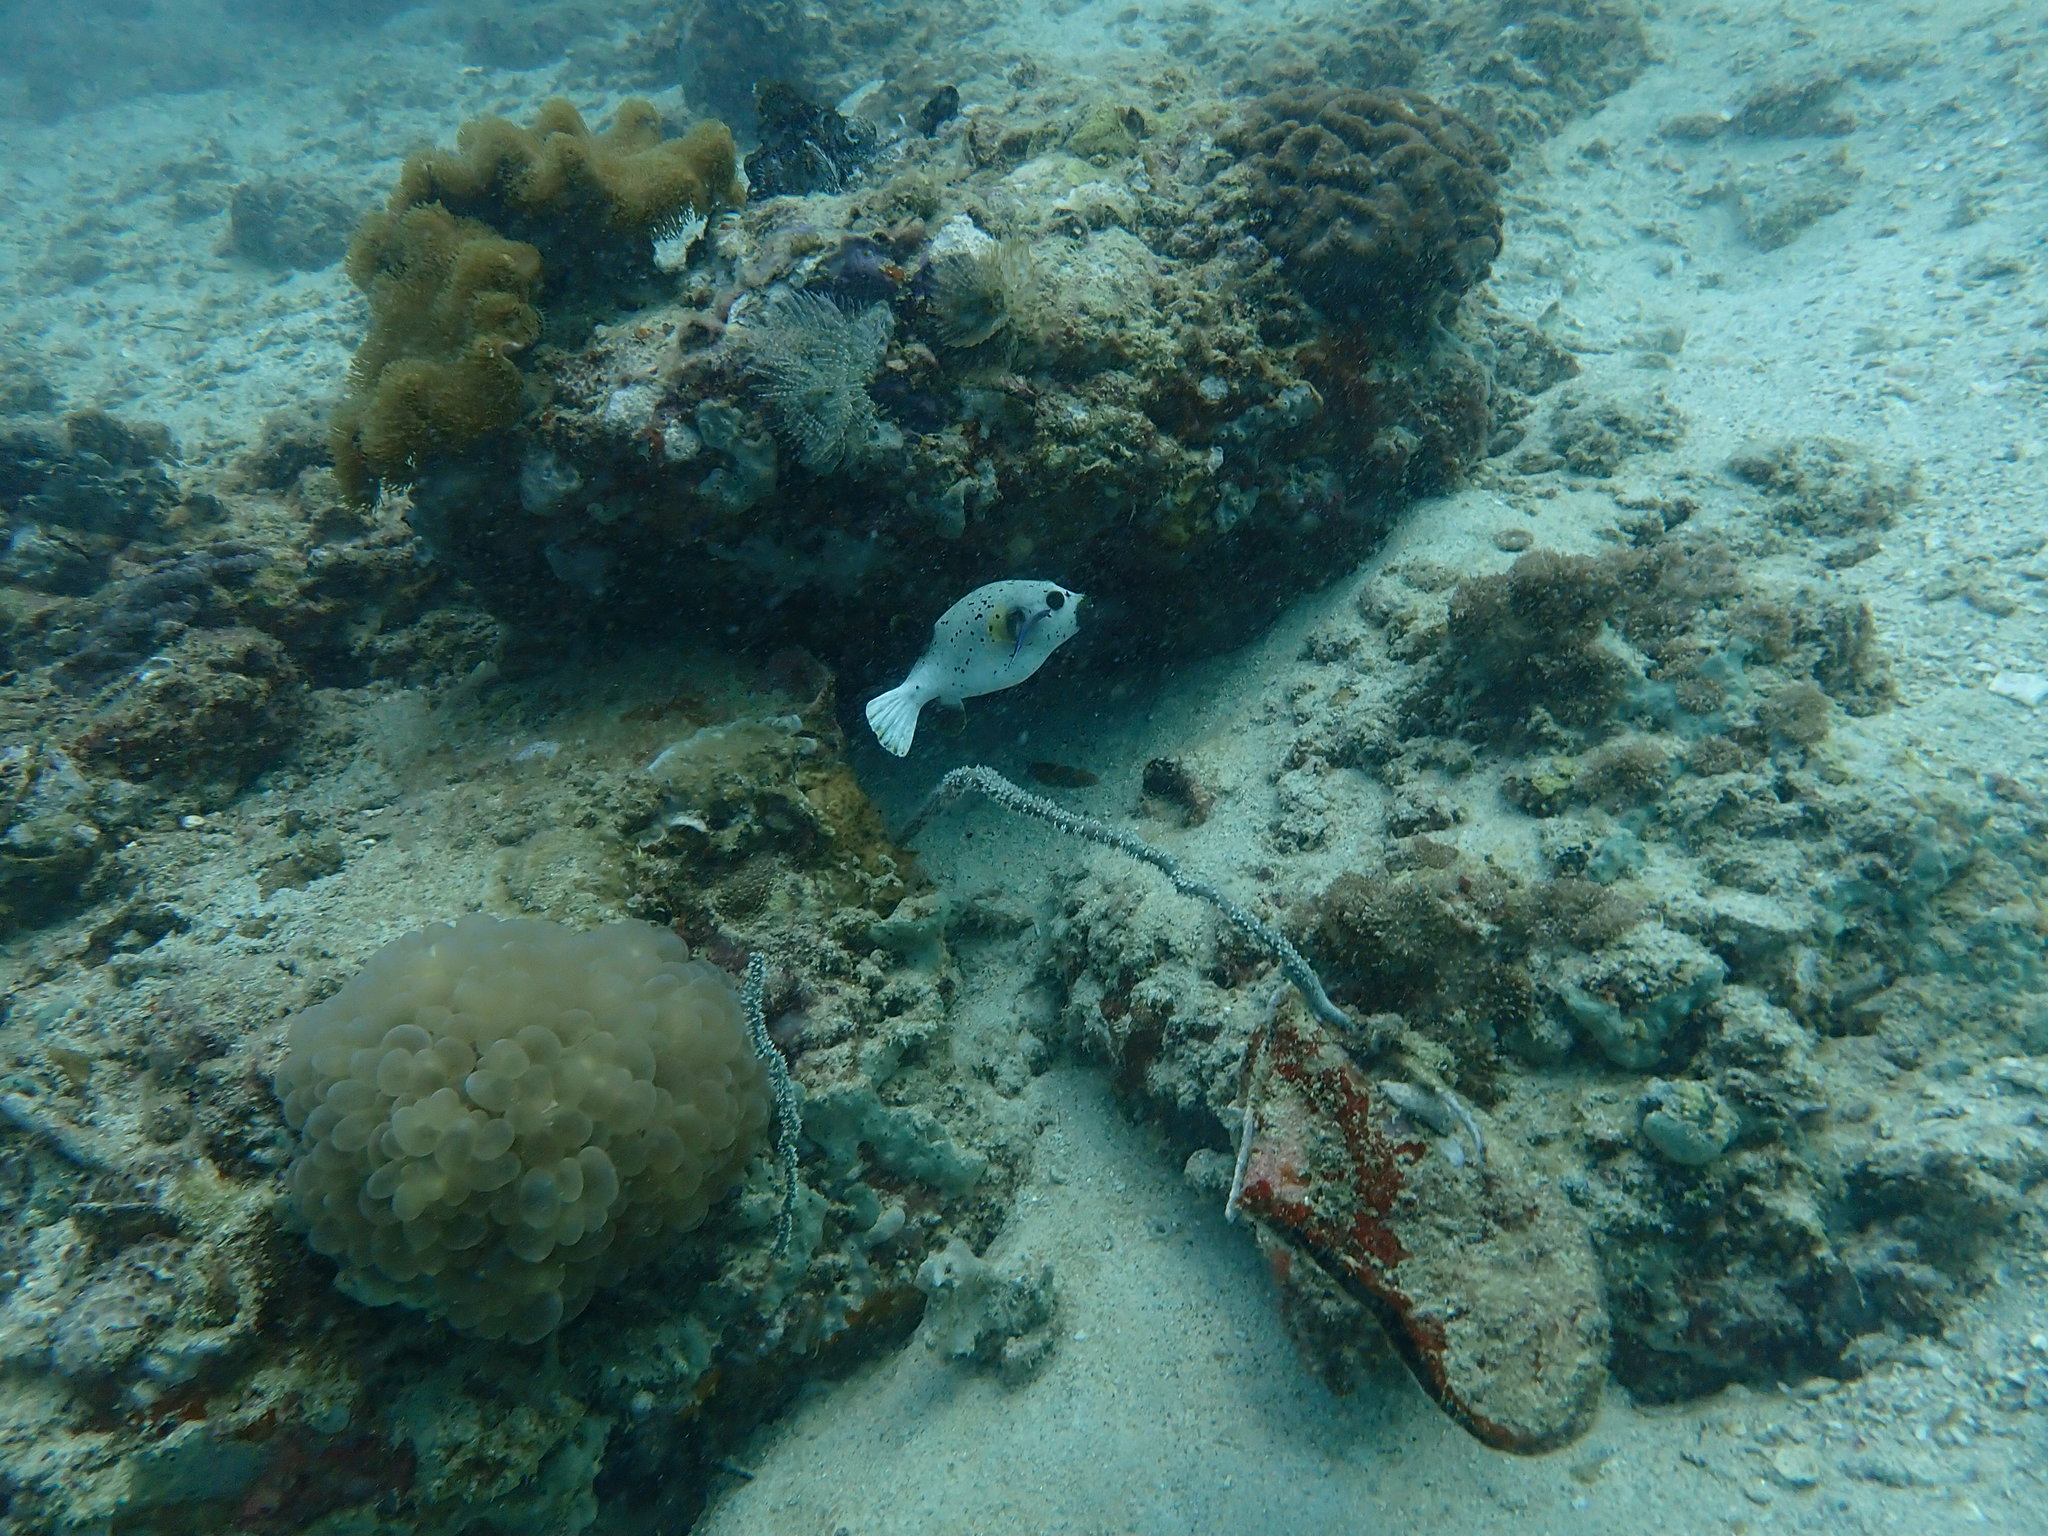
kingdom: Animalia
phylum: Chordata
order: Tetraodontiformes
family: Tetraodontidae
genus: Arothron
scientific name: Arothron nigropunctatus
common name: Black spotted blow fish
